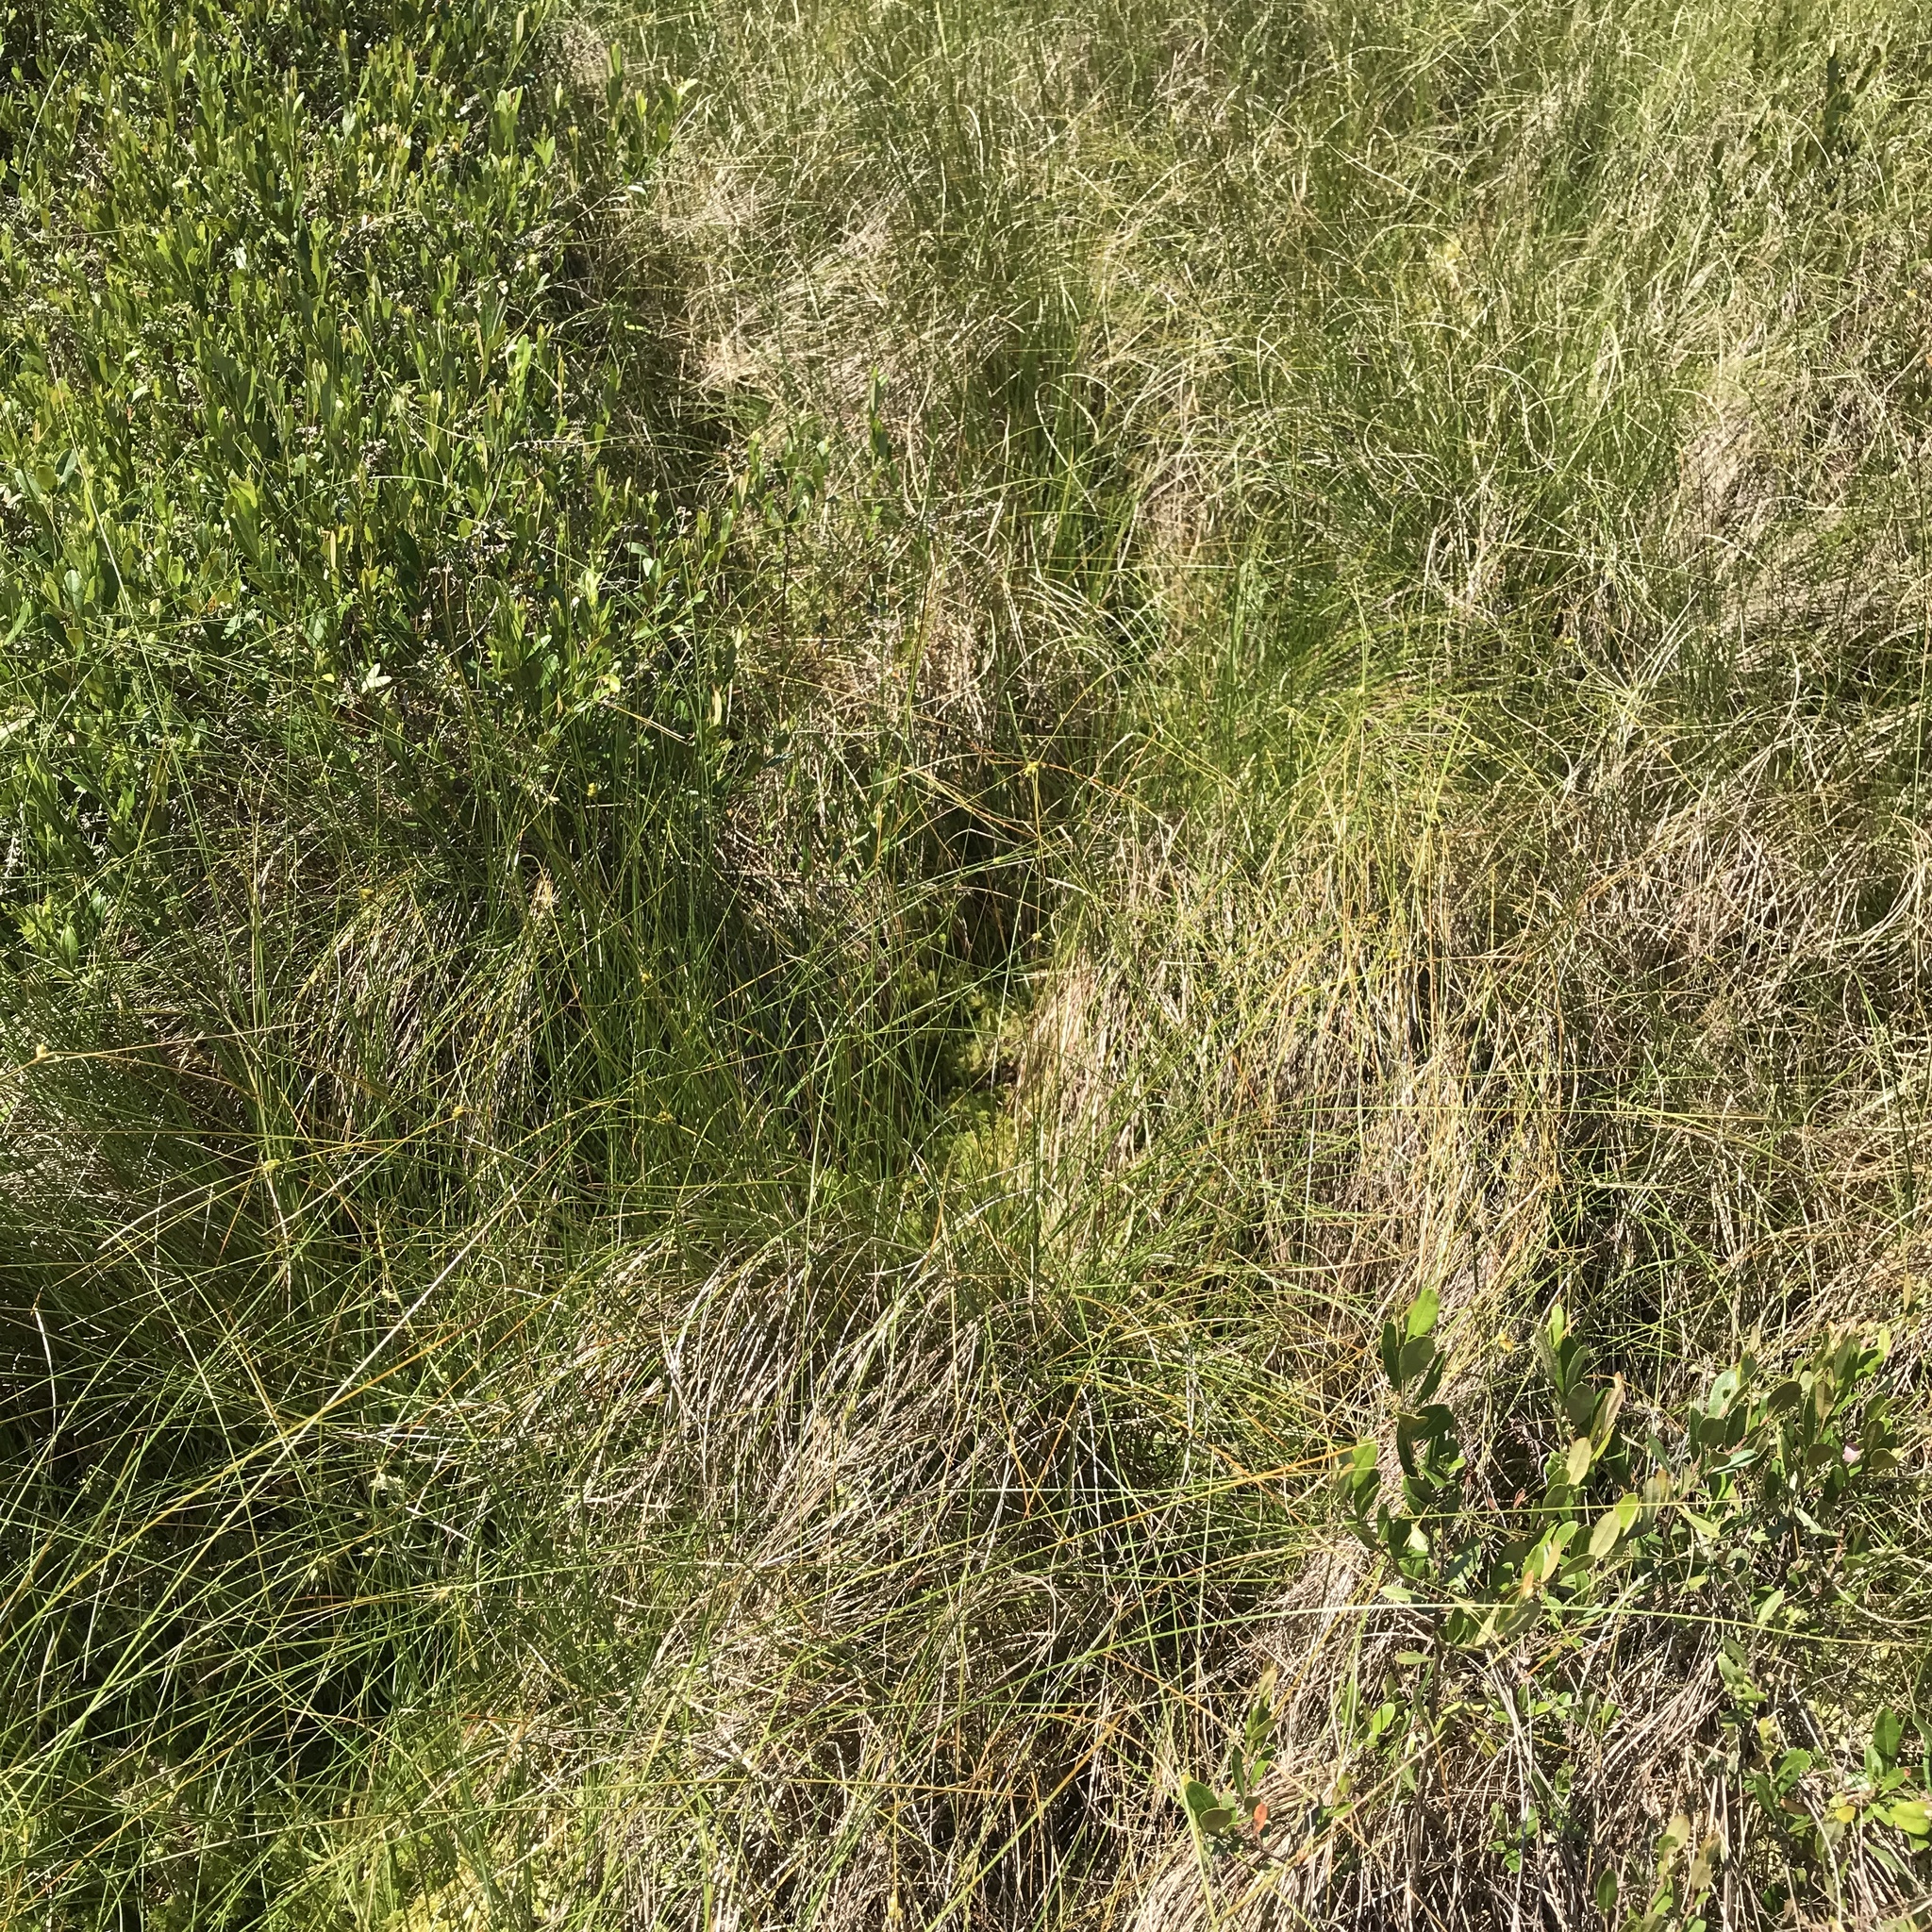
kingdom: Plantae
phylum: Tracheophyta
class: Liliopsida
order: Poales
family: Cyperaceae
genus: Carex
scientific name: Carex oligosperma
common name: Few-seed sedge
